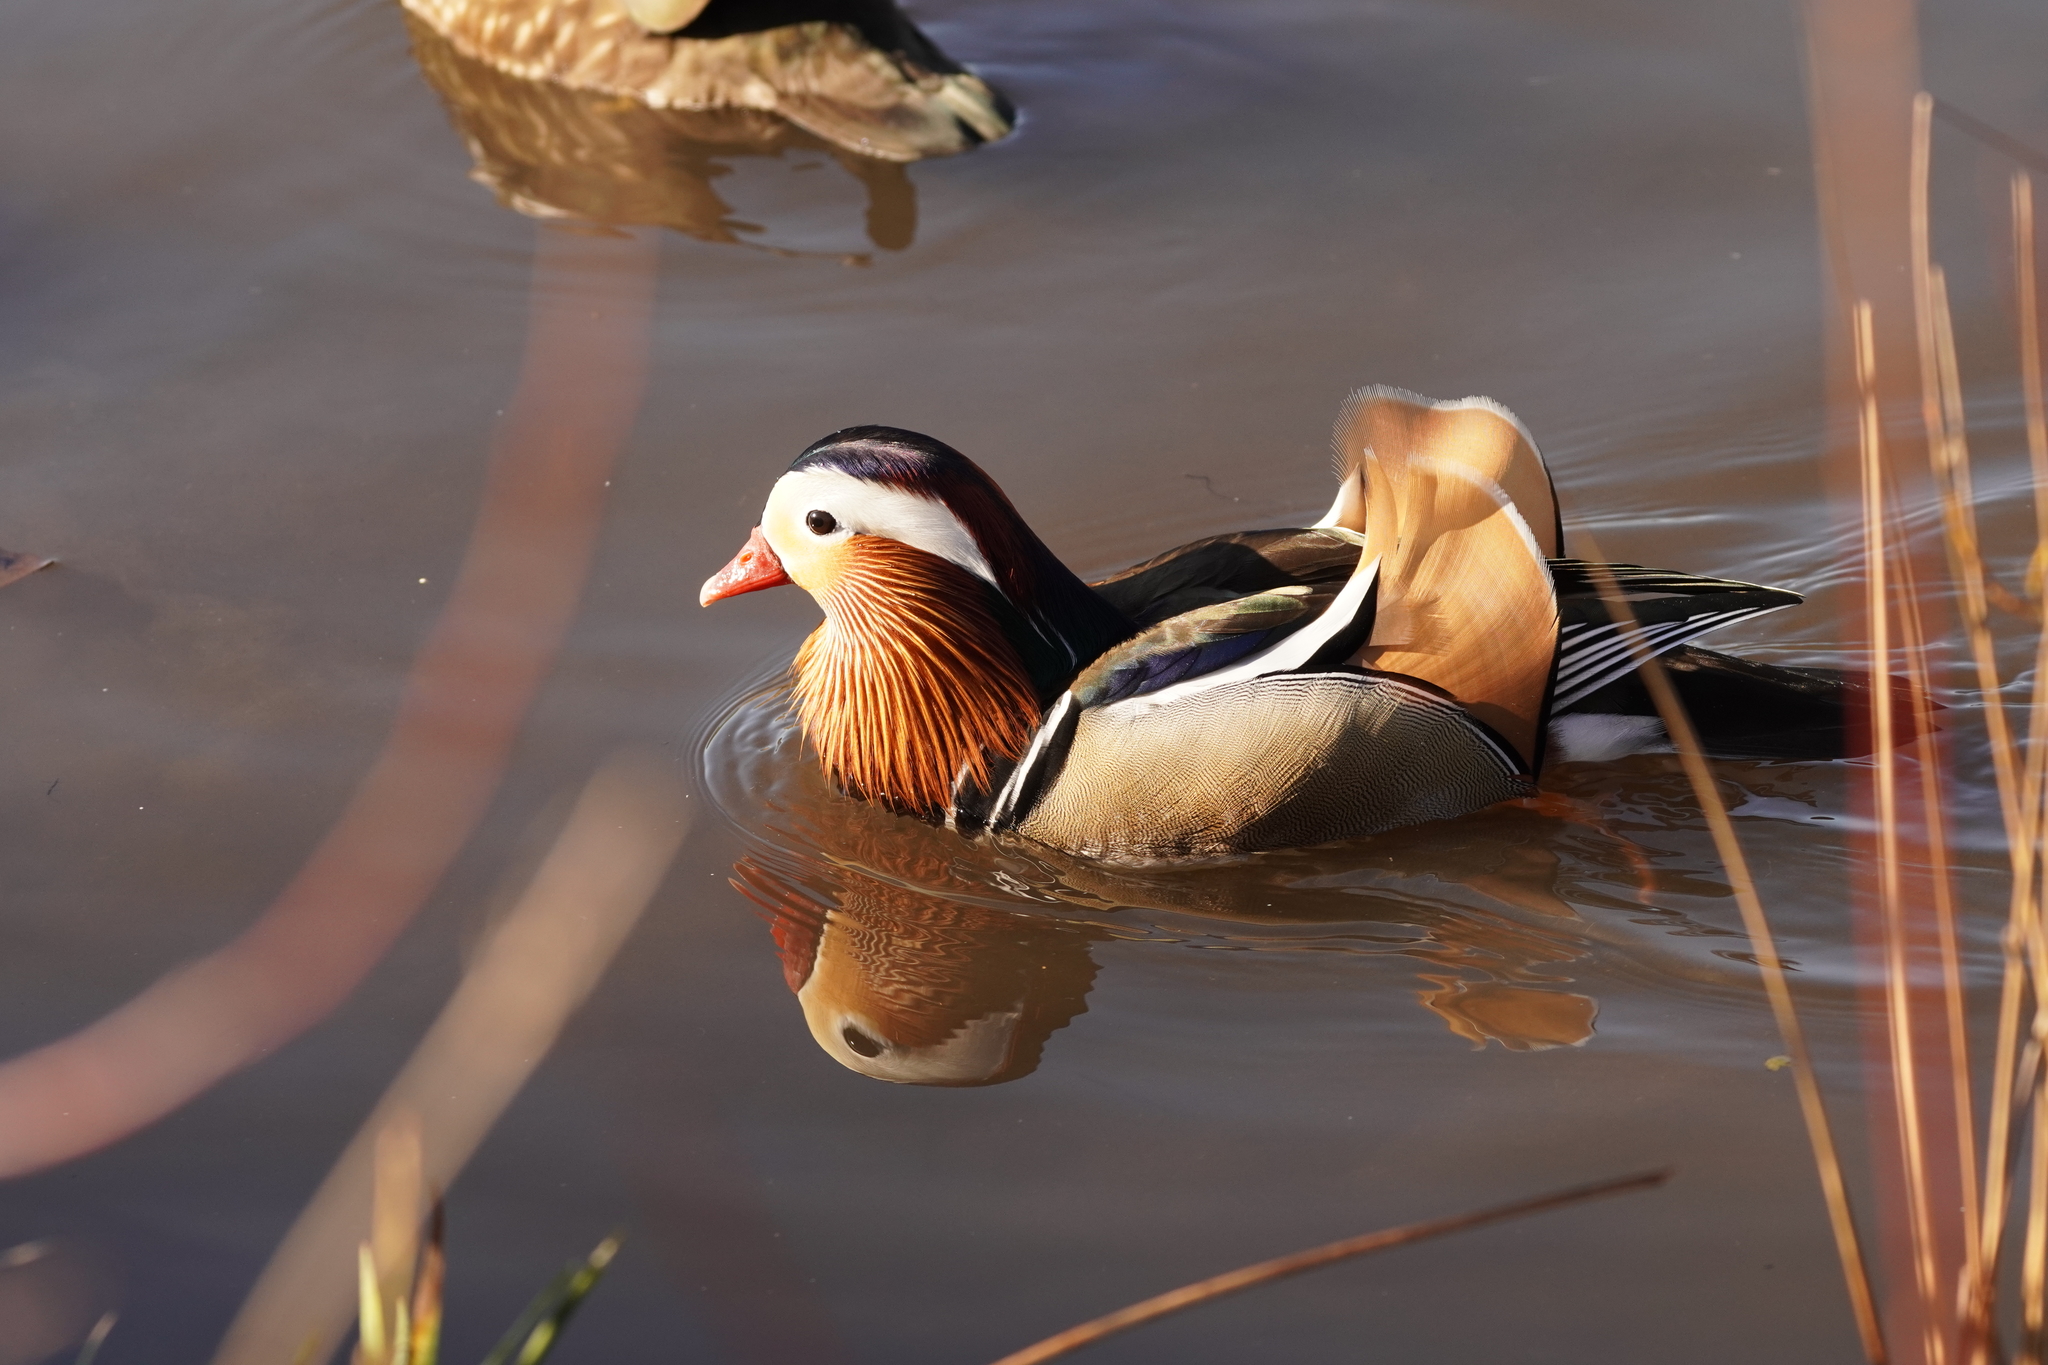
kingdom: Animalia
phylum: Chordata
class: Aves
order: Anseriformes
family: Anatidae
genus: Aix
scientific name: Aix galericulata
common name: Mandarin duck
